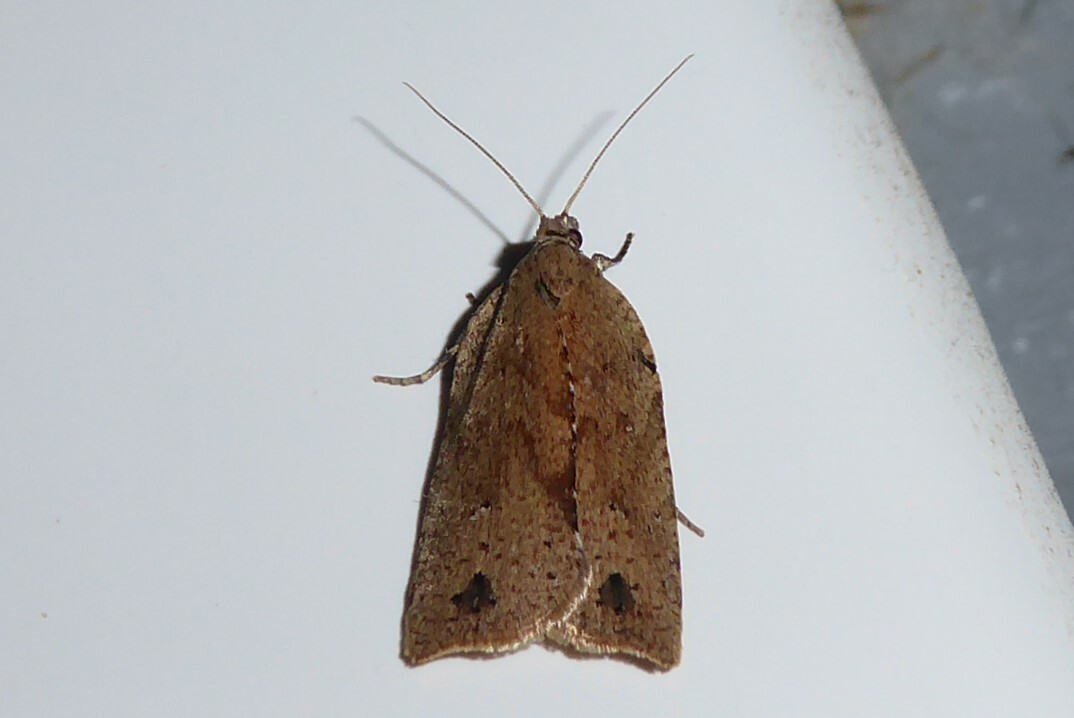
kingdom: Animalia
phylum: Arthropoda
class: Insecta
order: Lepidoptera
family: Tortricidae
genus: Planotortrix
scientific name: Planotortrix notophaea
